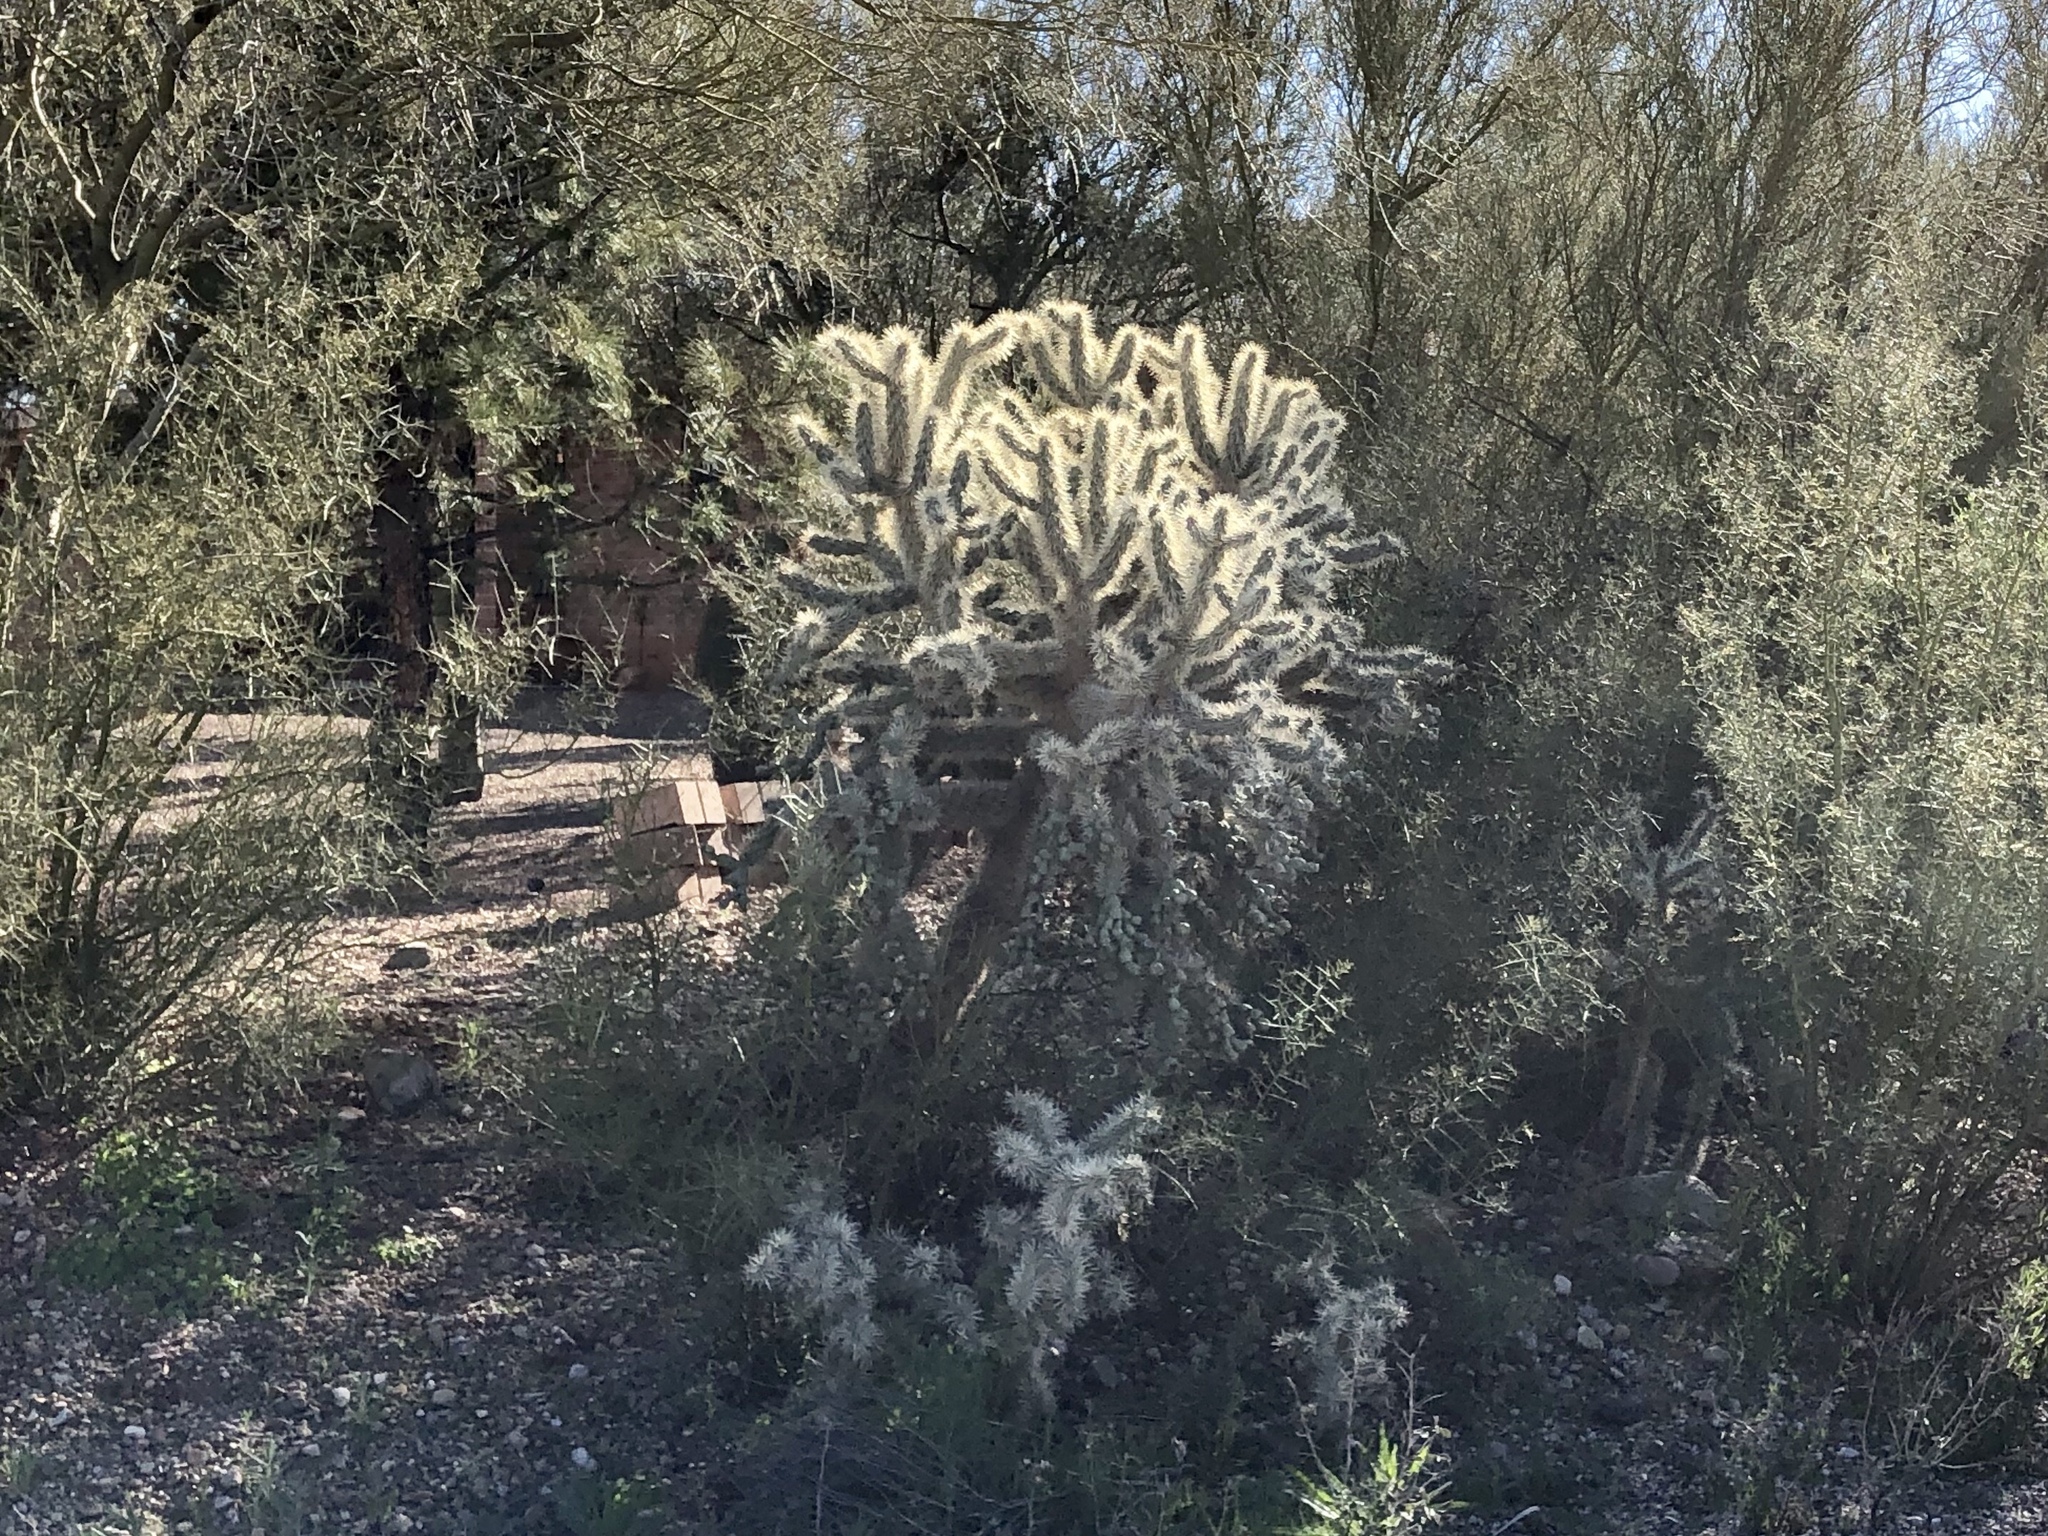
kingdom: Plantae
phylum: Tracheophyta
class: Magnoliopsida
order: Caryophyllales
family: Cactaceae
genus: Cylindropuntia
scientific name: Cylindropuntia fulgida
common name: Jumping cholla
